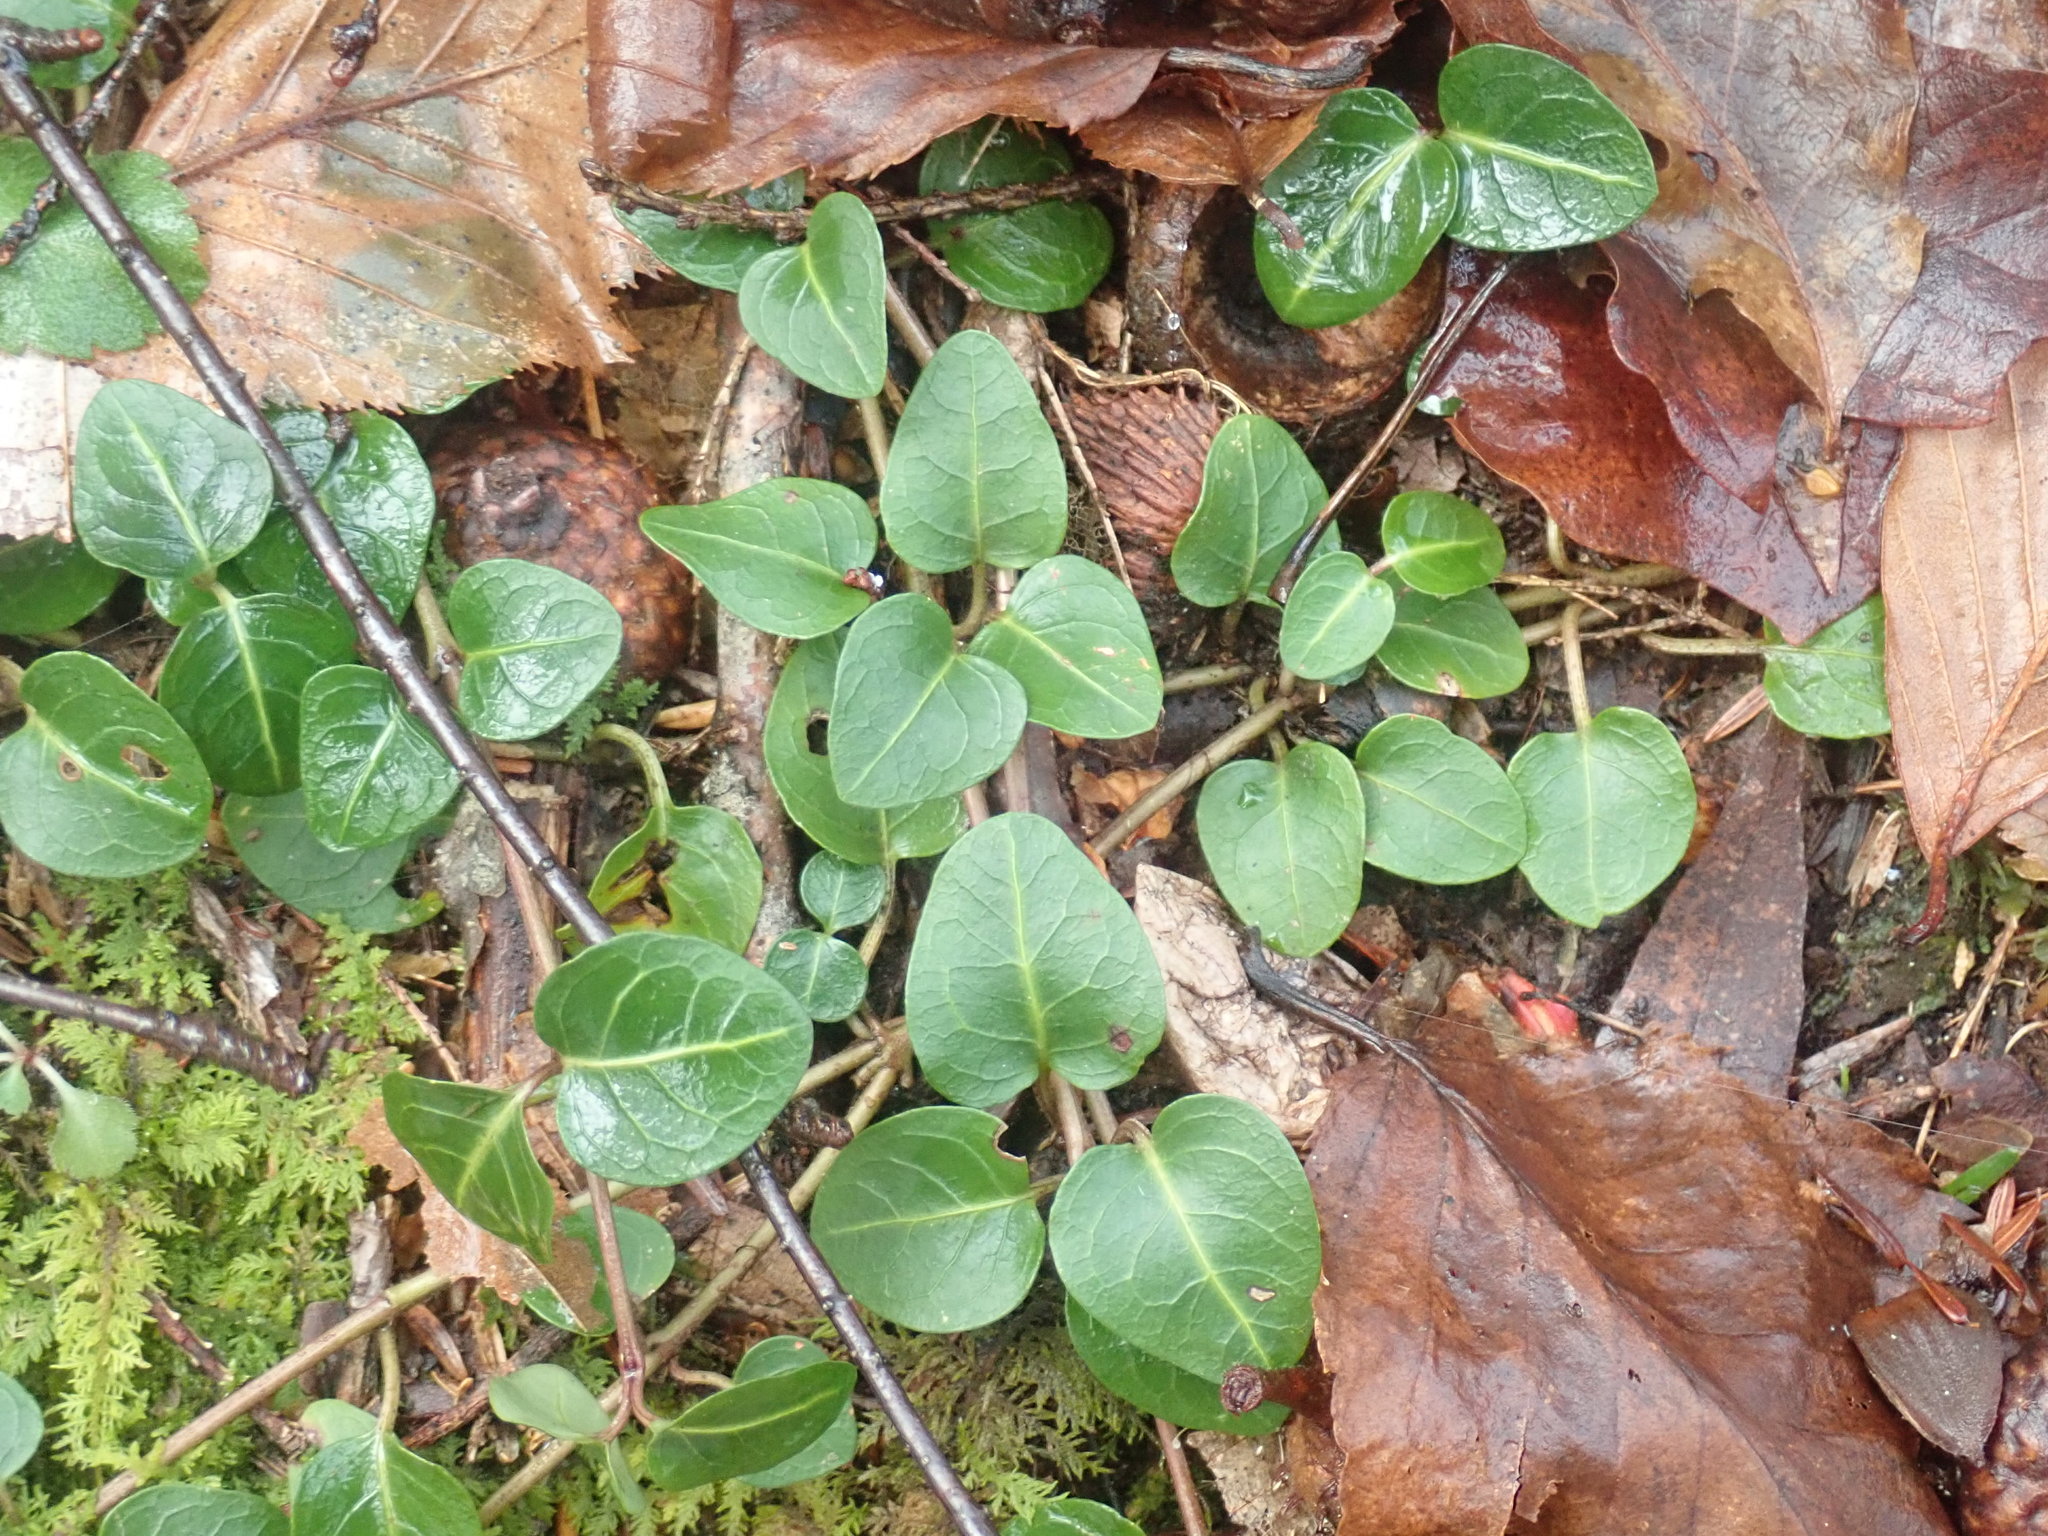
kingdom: Plantae
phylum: Tracheophyta
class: Magnoliopsida
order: Gentianales
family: Rubiaceae
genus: Mitchella
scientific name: Mitchella repens
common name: Partridge-berry
